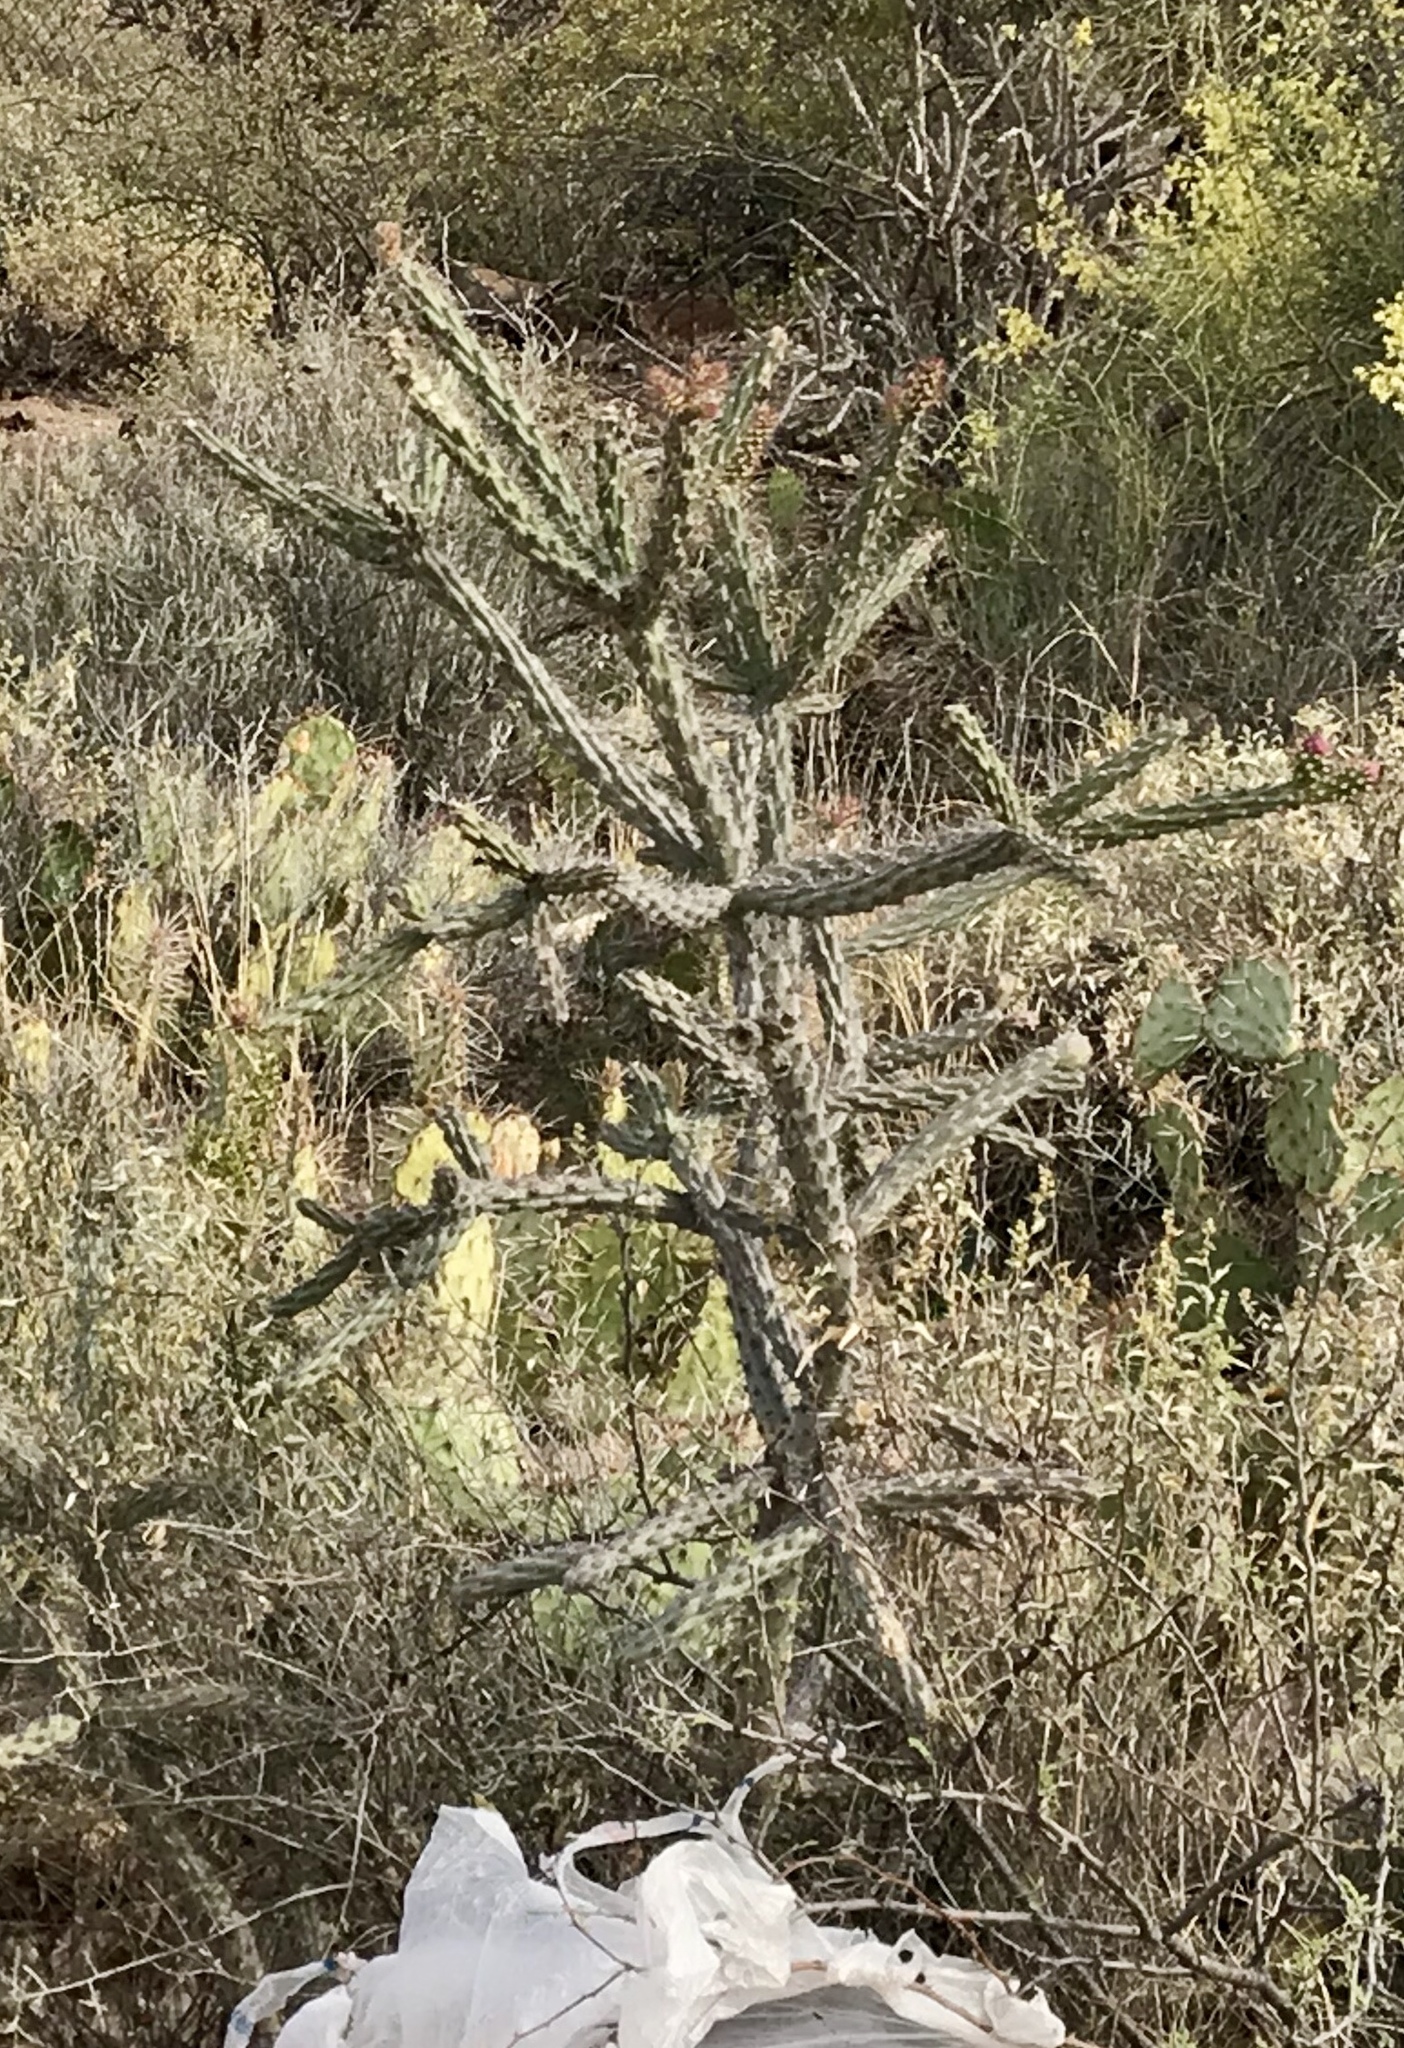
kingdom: Plantae
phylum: Tracheophyta
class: Magnoliopsida
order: Caryophyllales
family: Cactaceae
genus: Cylindropuntia
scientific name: Cylindropuntia thurberi
